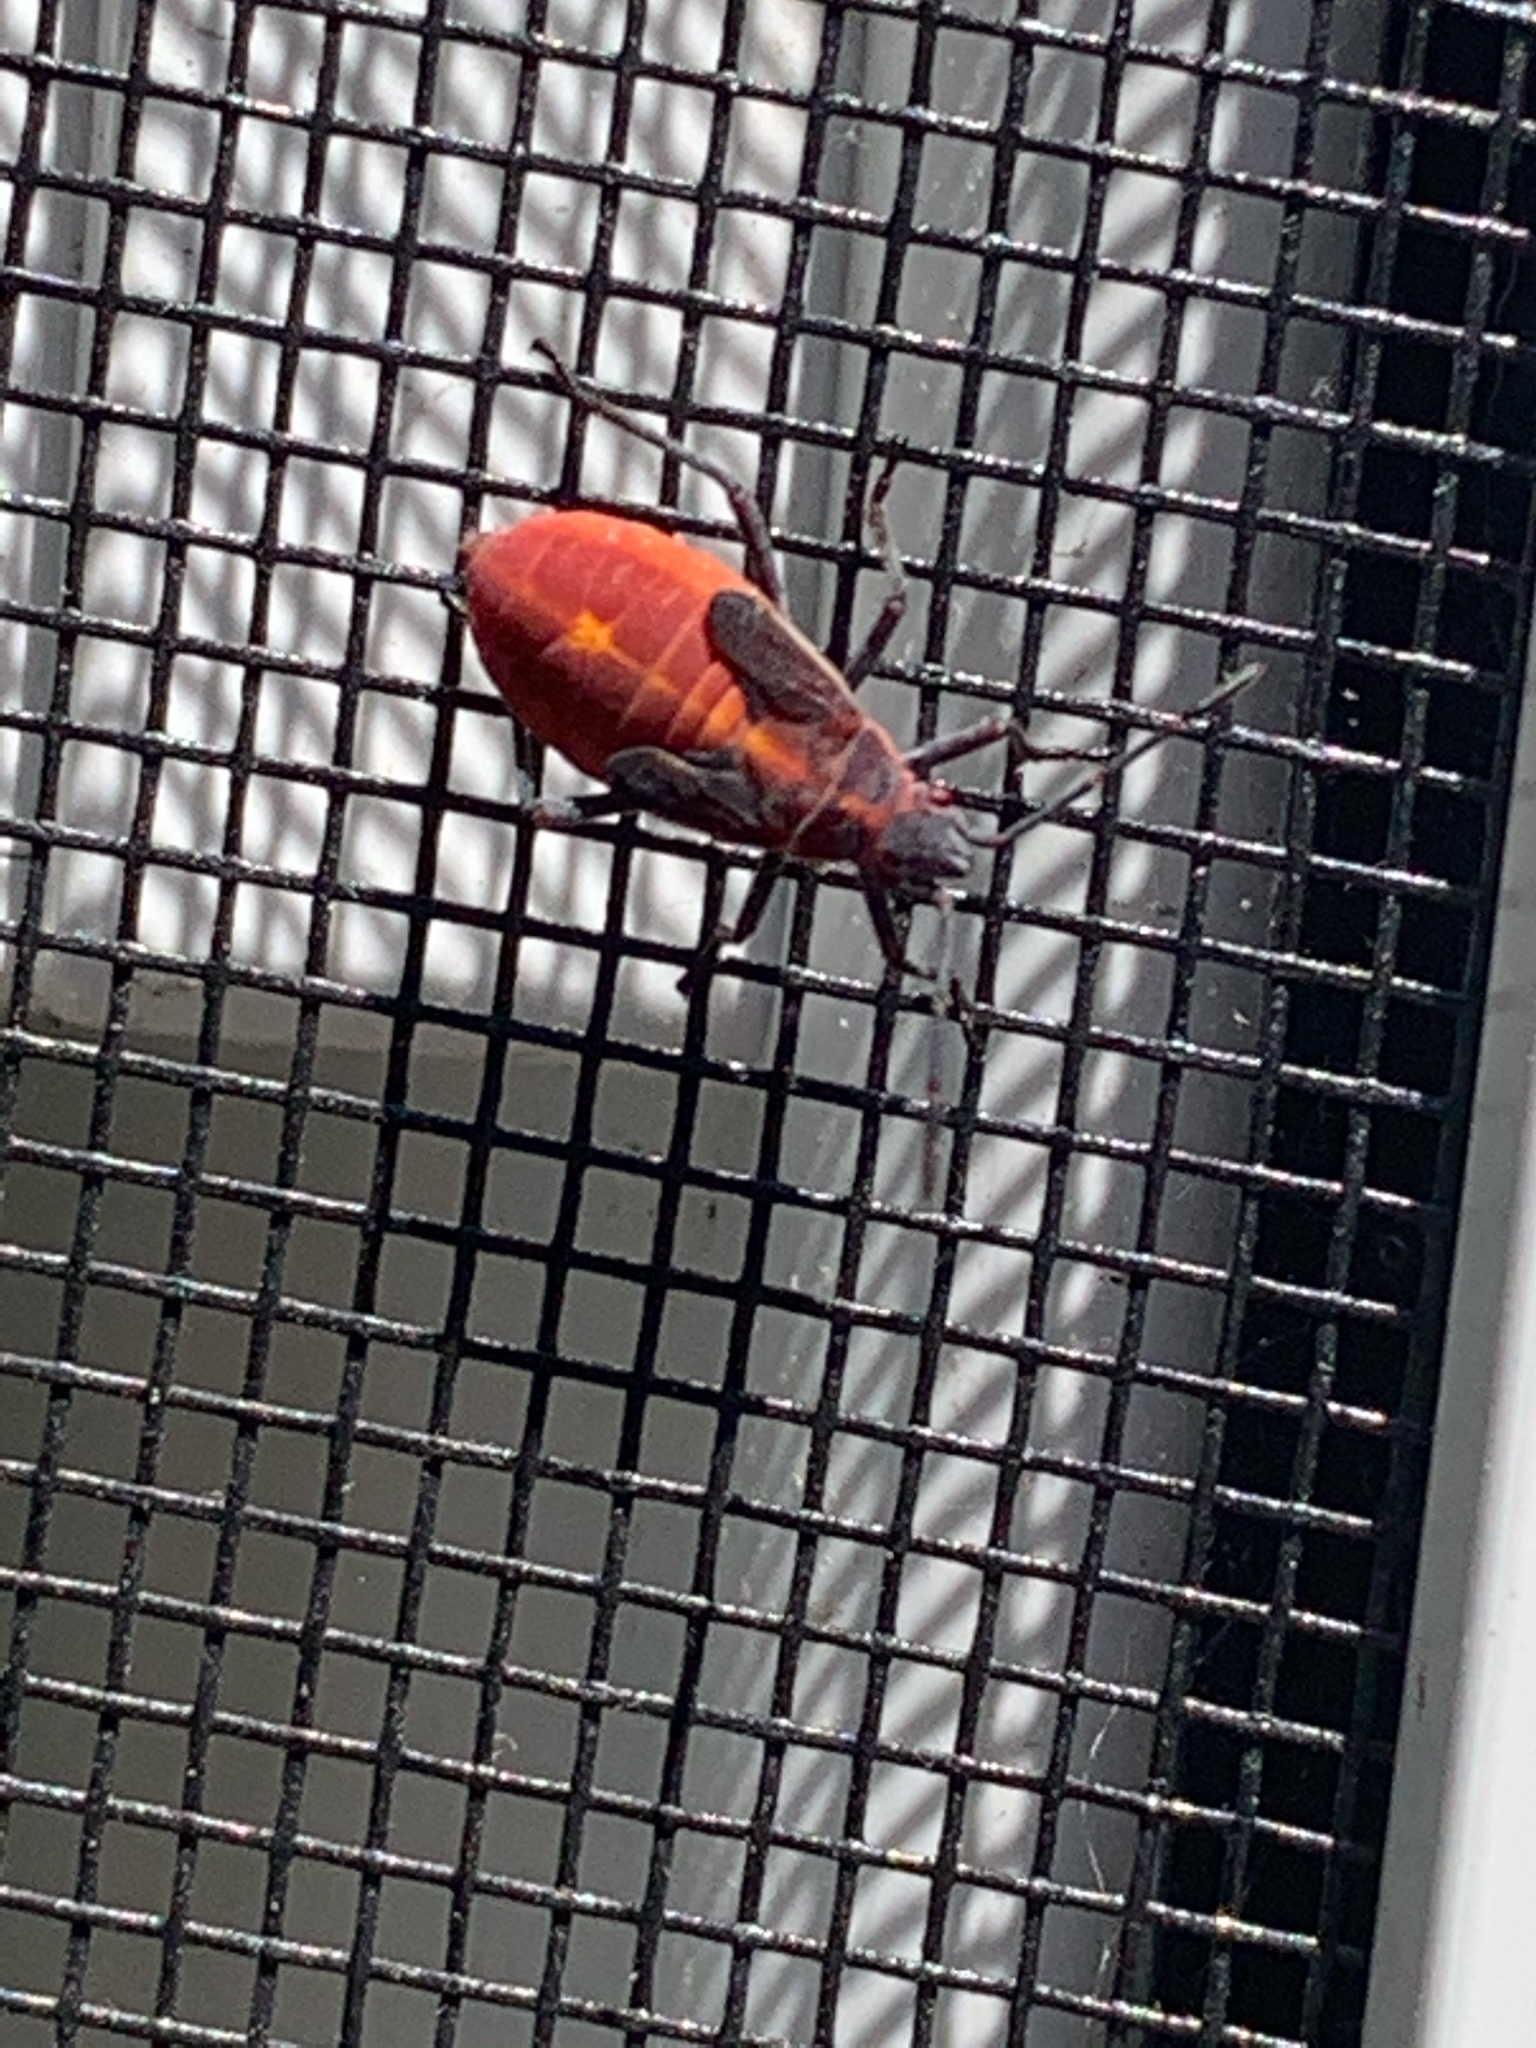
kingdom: Animalia
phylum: Arthropoda
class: Insecta
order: Hemiptera
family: Rhopalidae
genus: Boisea
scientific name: Boisea trivittata
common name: Boxelder bug
